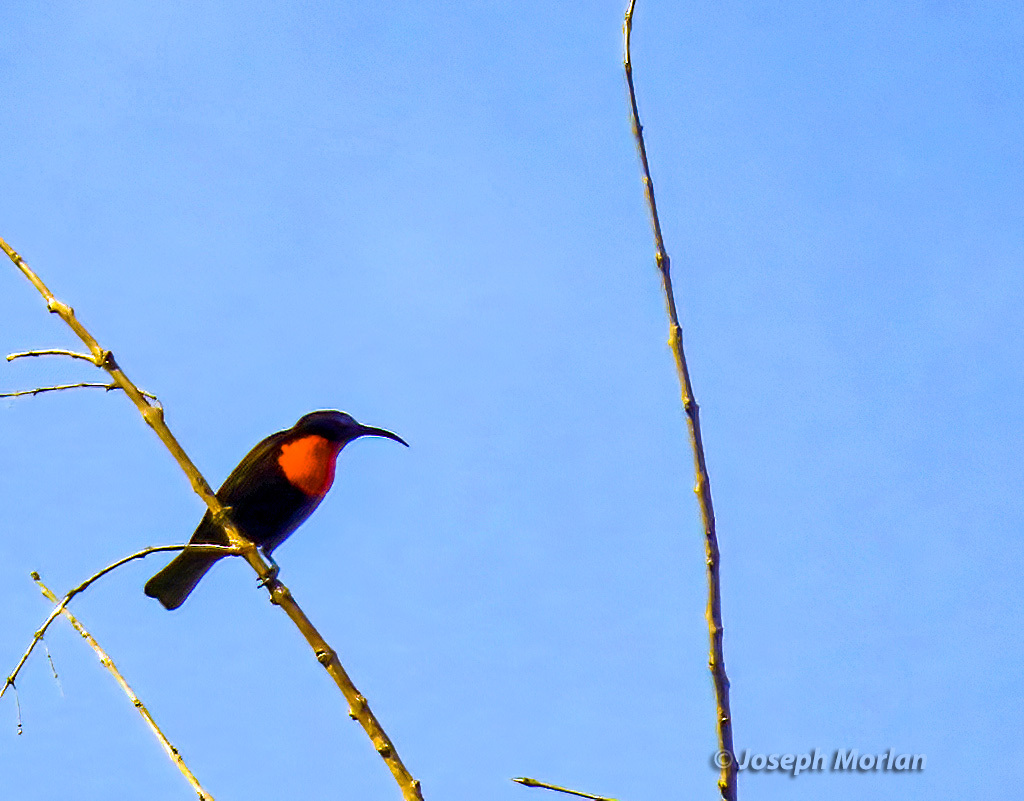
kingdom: Animalia
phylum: Chordata
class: Aves
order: Passeriformes
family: Nectariniidae
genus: Chalcomitra
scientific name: Chalcomitra senegalensis
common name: Scarlet-chested sunbird
